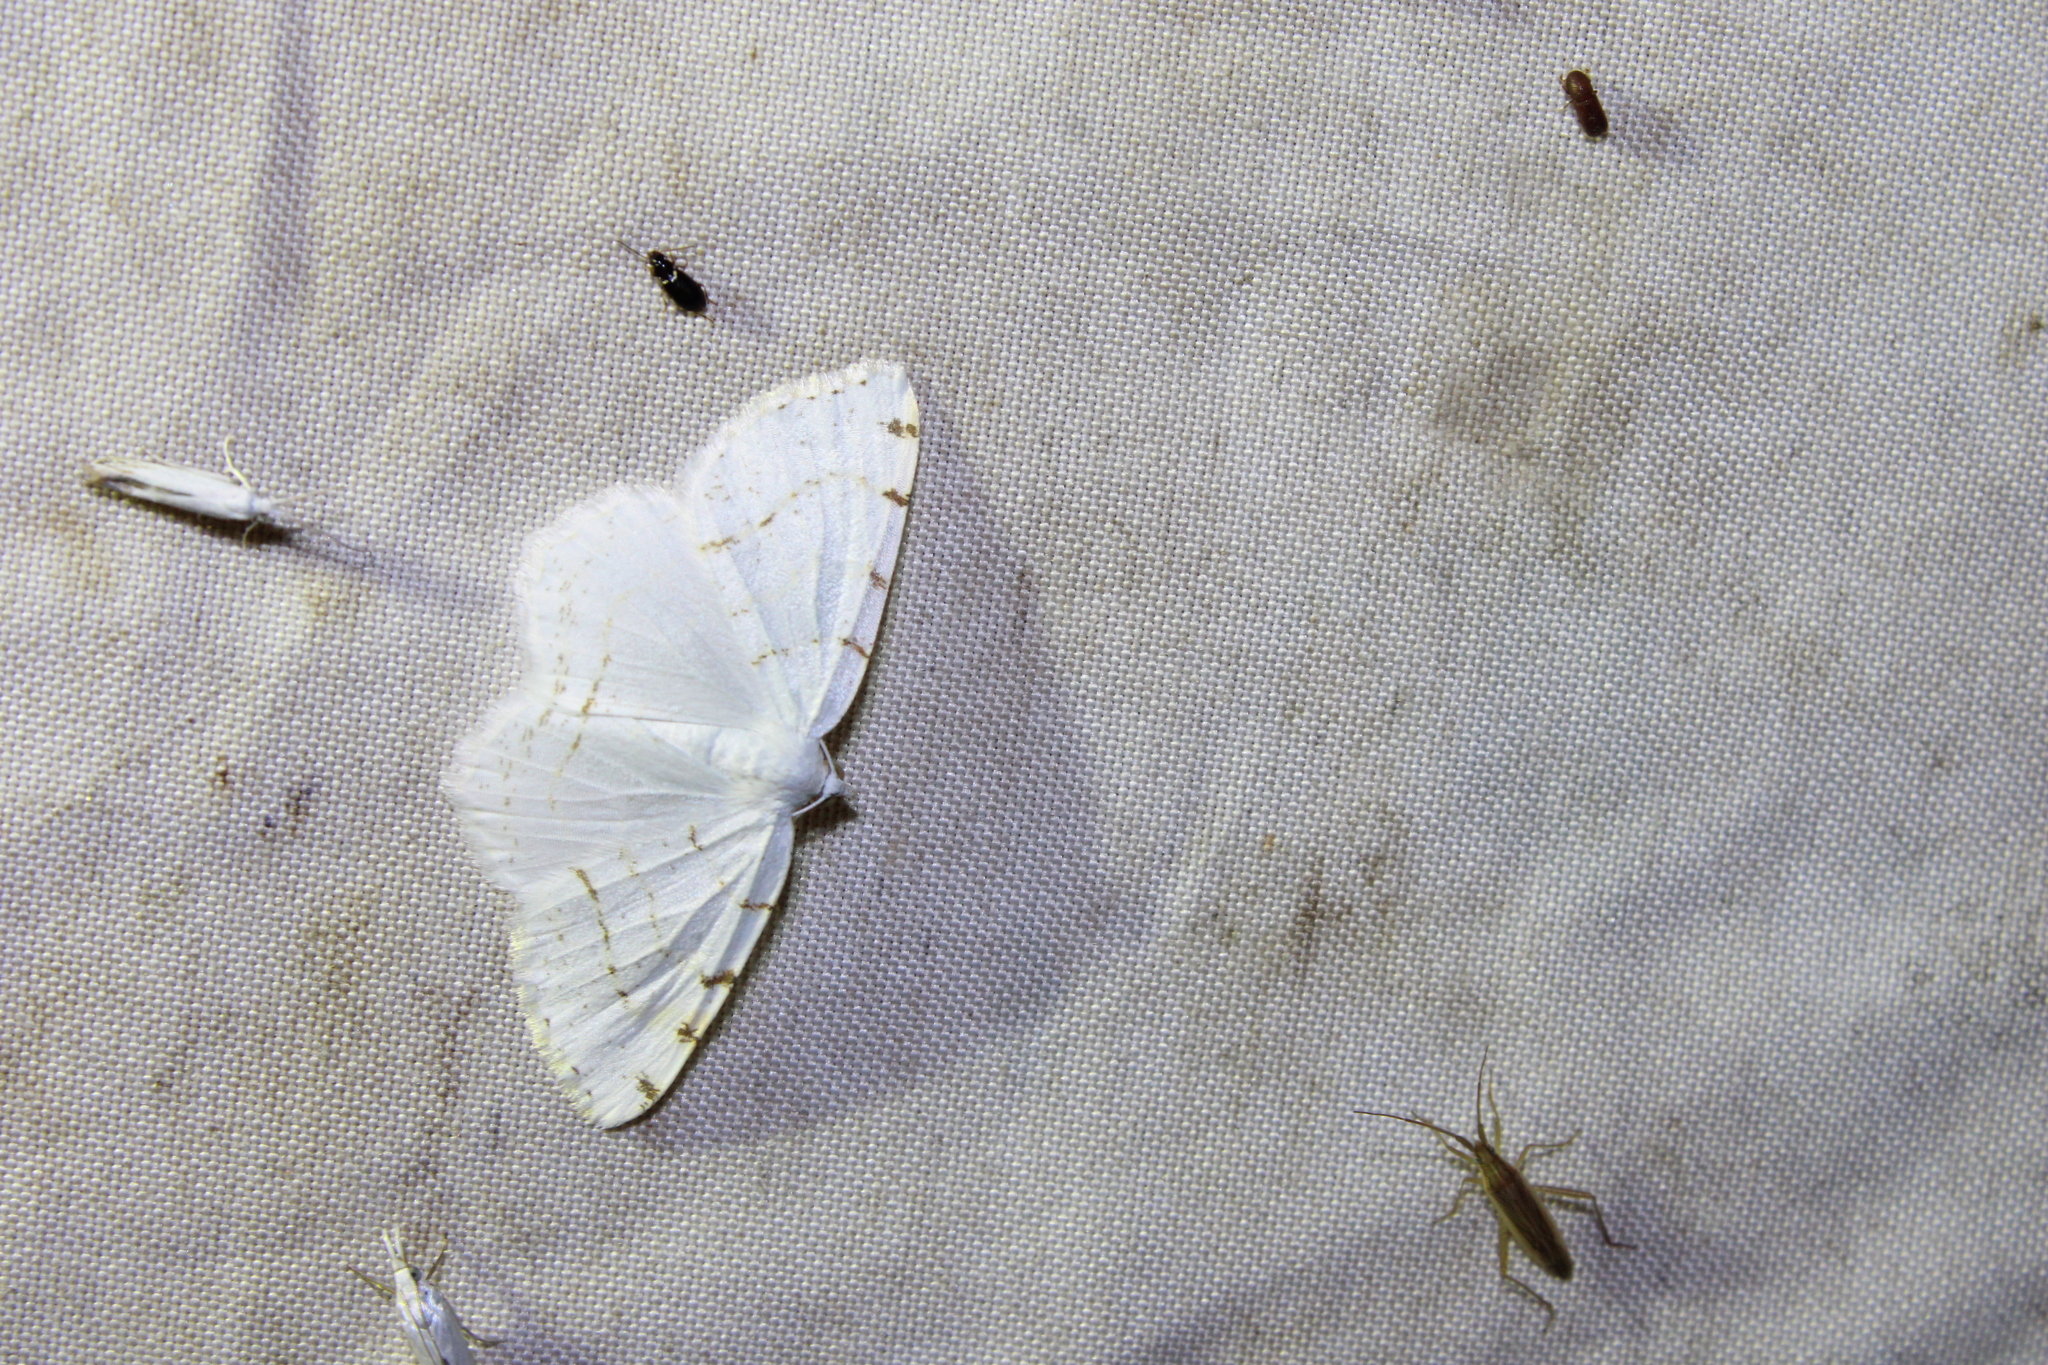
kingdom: Animalia
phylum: Arthropoda
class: Insecta
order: Lepidoptera
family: Geometridae
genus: Macaria
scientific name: Macaria pustularia
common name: Lesser maple spanworm moth
